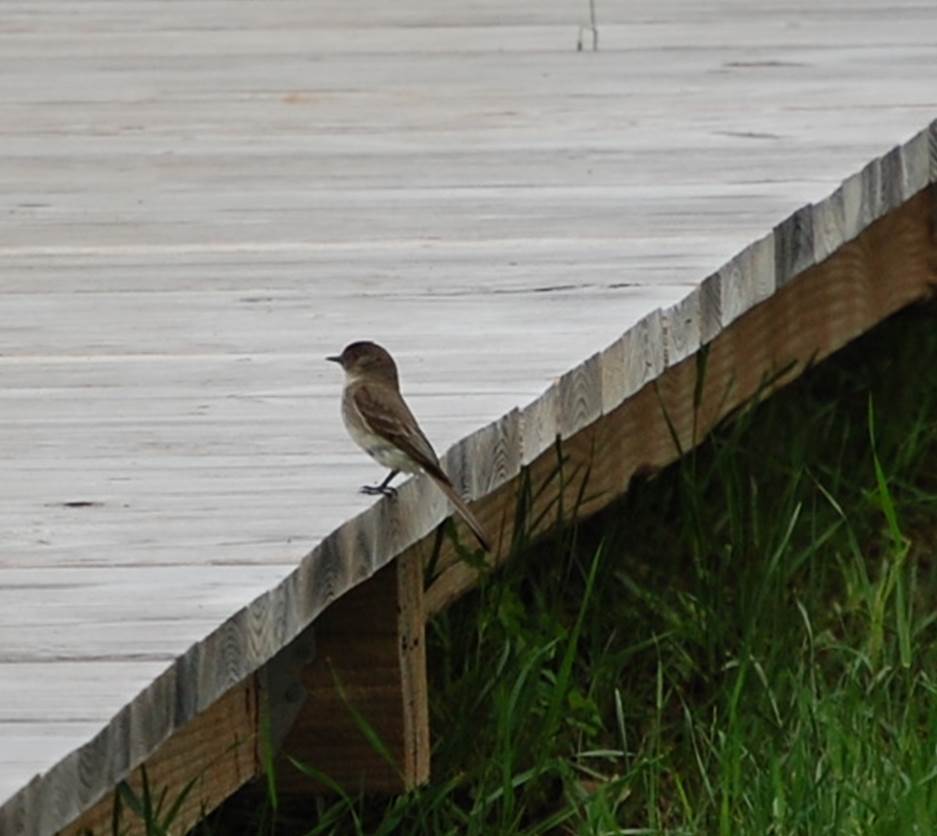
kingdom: Animalia
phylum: Chordata
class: Aves
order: Passeriformes
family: Tyrannidae
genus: Sayornis
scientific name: Sayornis phoebe
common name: Eastern phoebe
